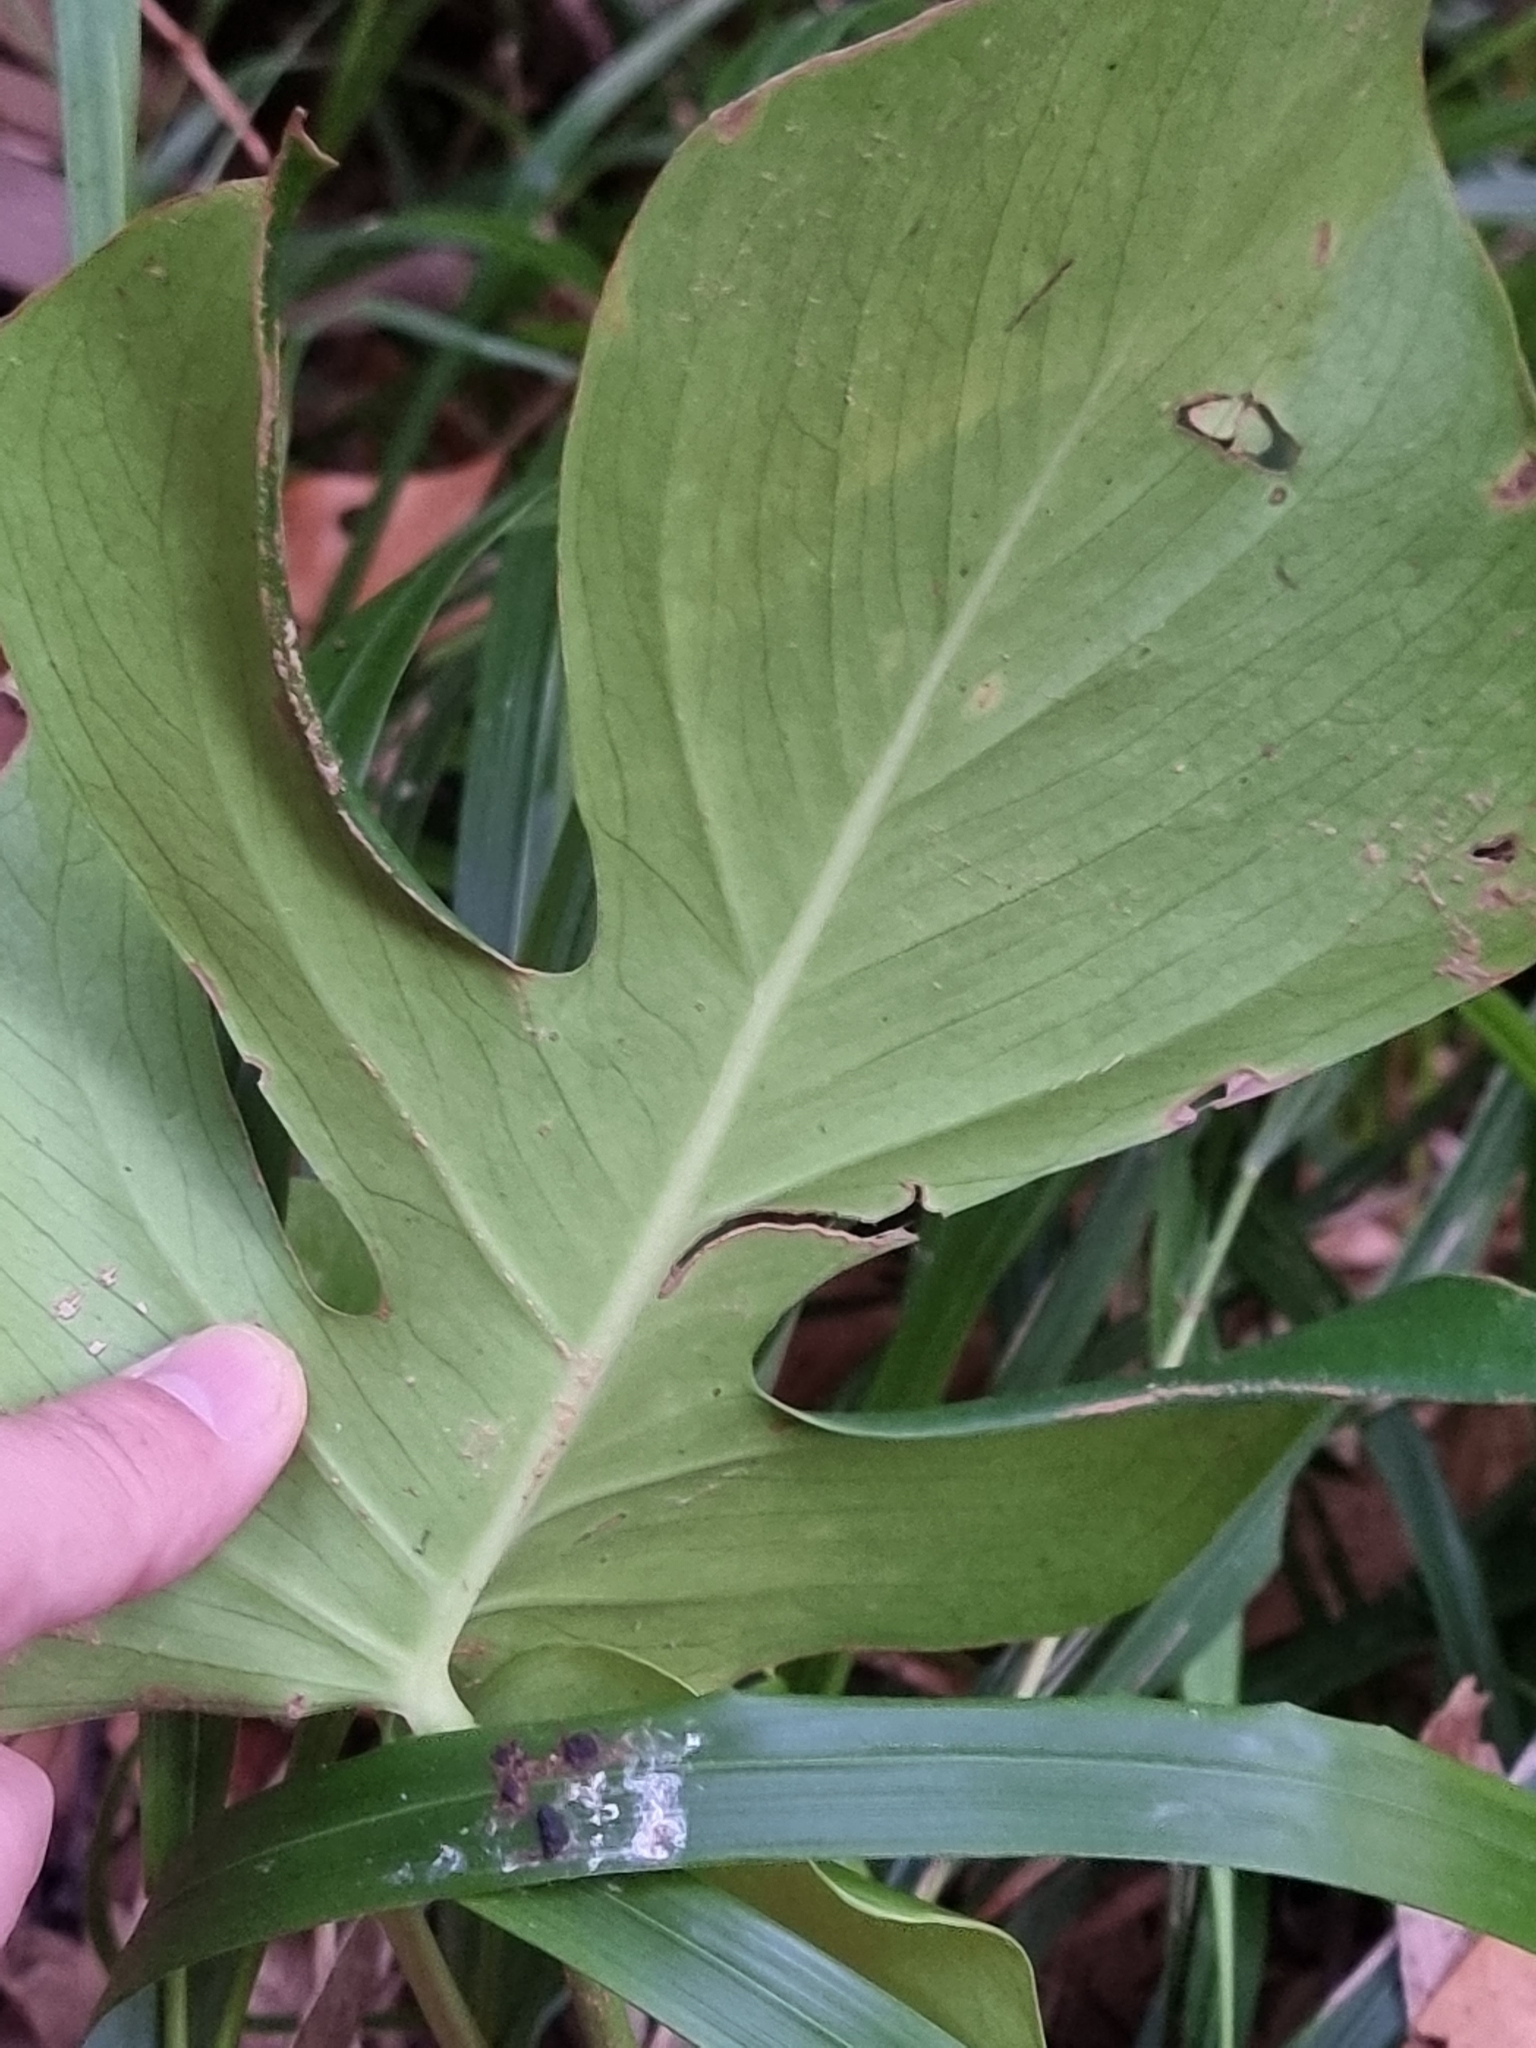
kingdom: Plantae
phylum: Tracheophyta
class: Liliopsida
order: Alismatales
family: Araceae
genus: Monstera
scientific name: Monstera deliciosa
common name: Cut-leaf-philodendron
